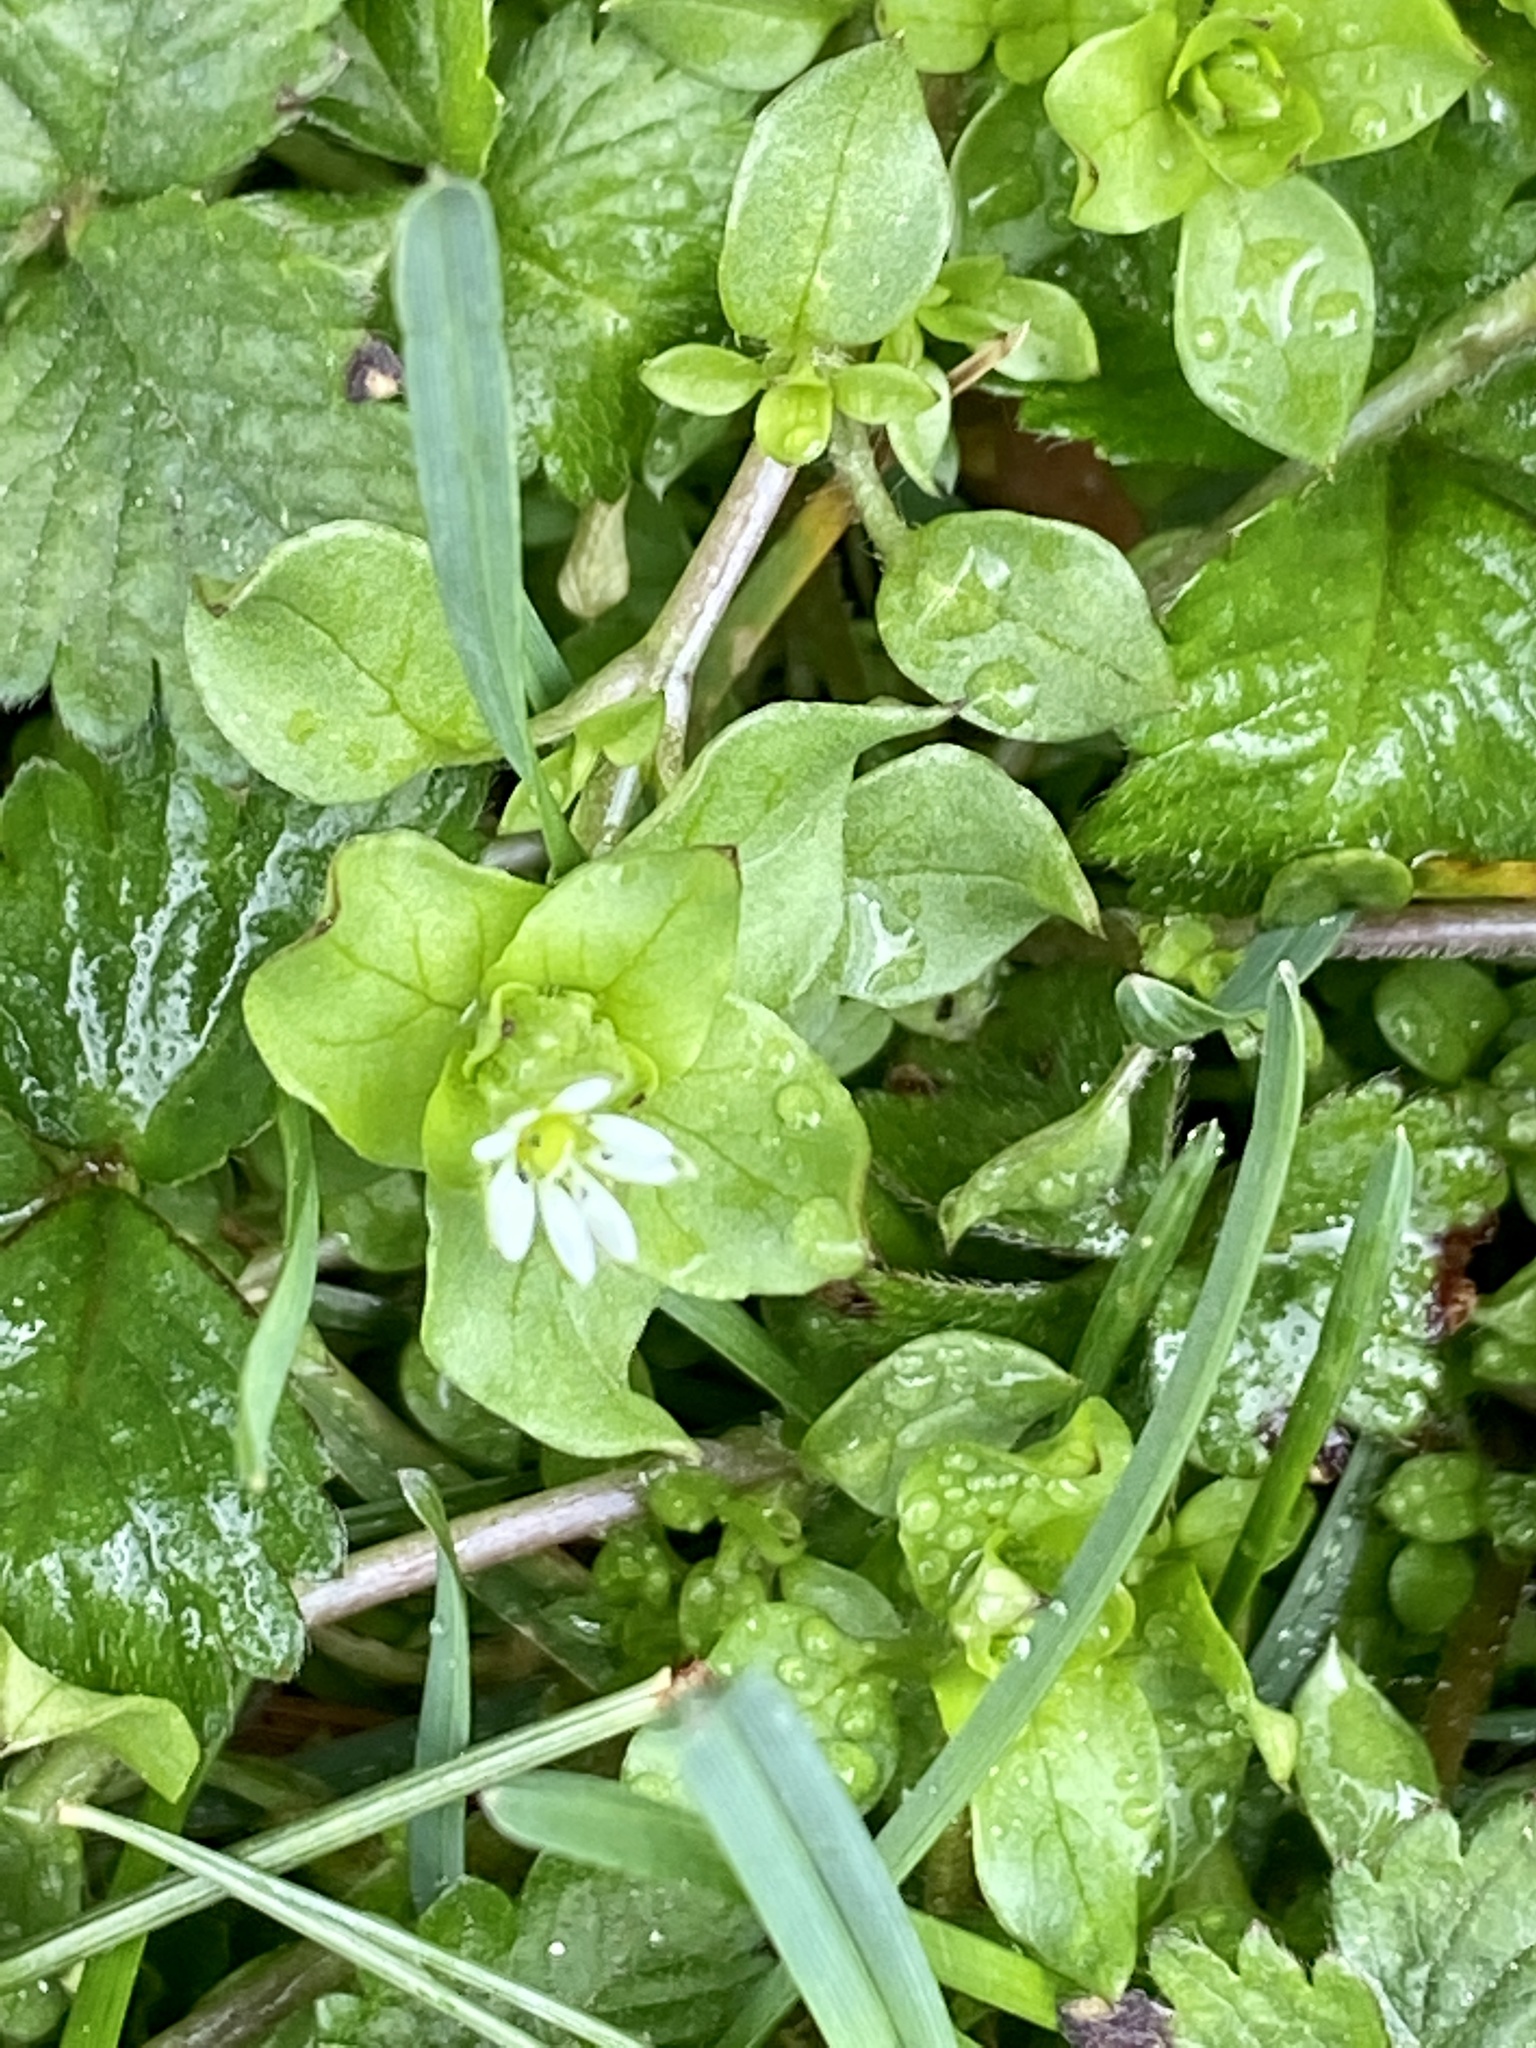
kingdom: Plantae
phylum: Tracheophyta
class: Magnoliopsida
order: Caryophyllales
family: Caryophyllaceae
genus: Stellaria
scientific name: Stellaria media
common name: Common chickweed
